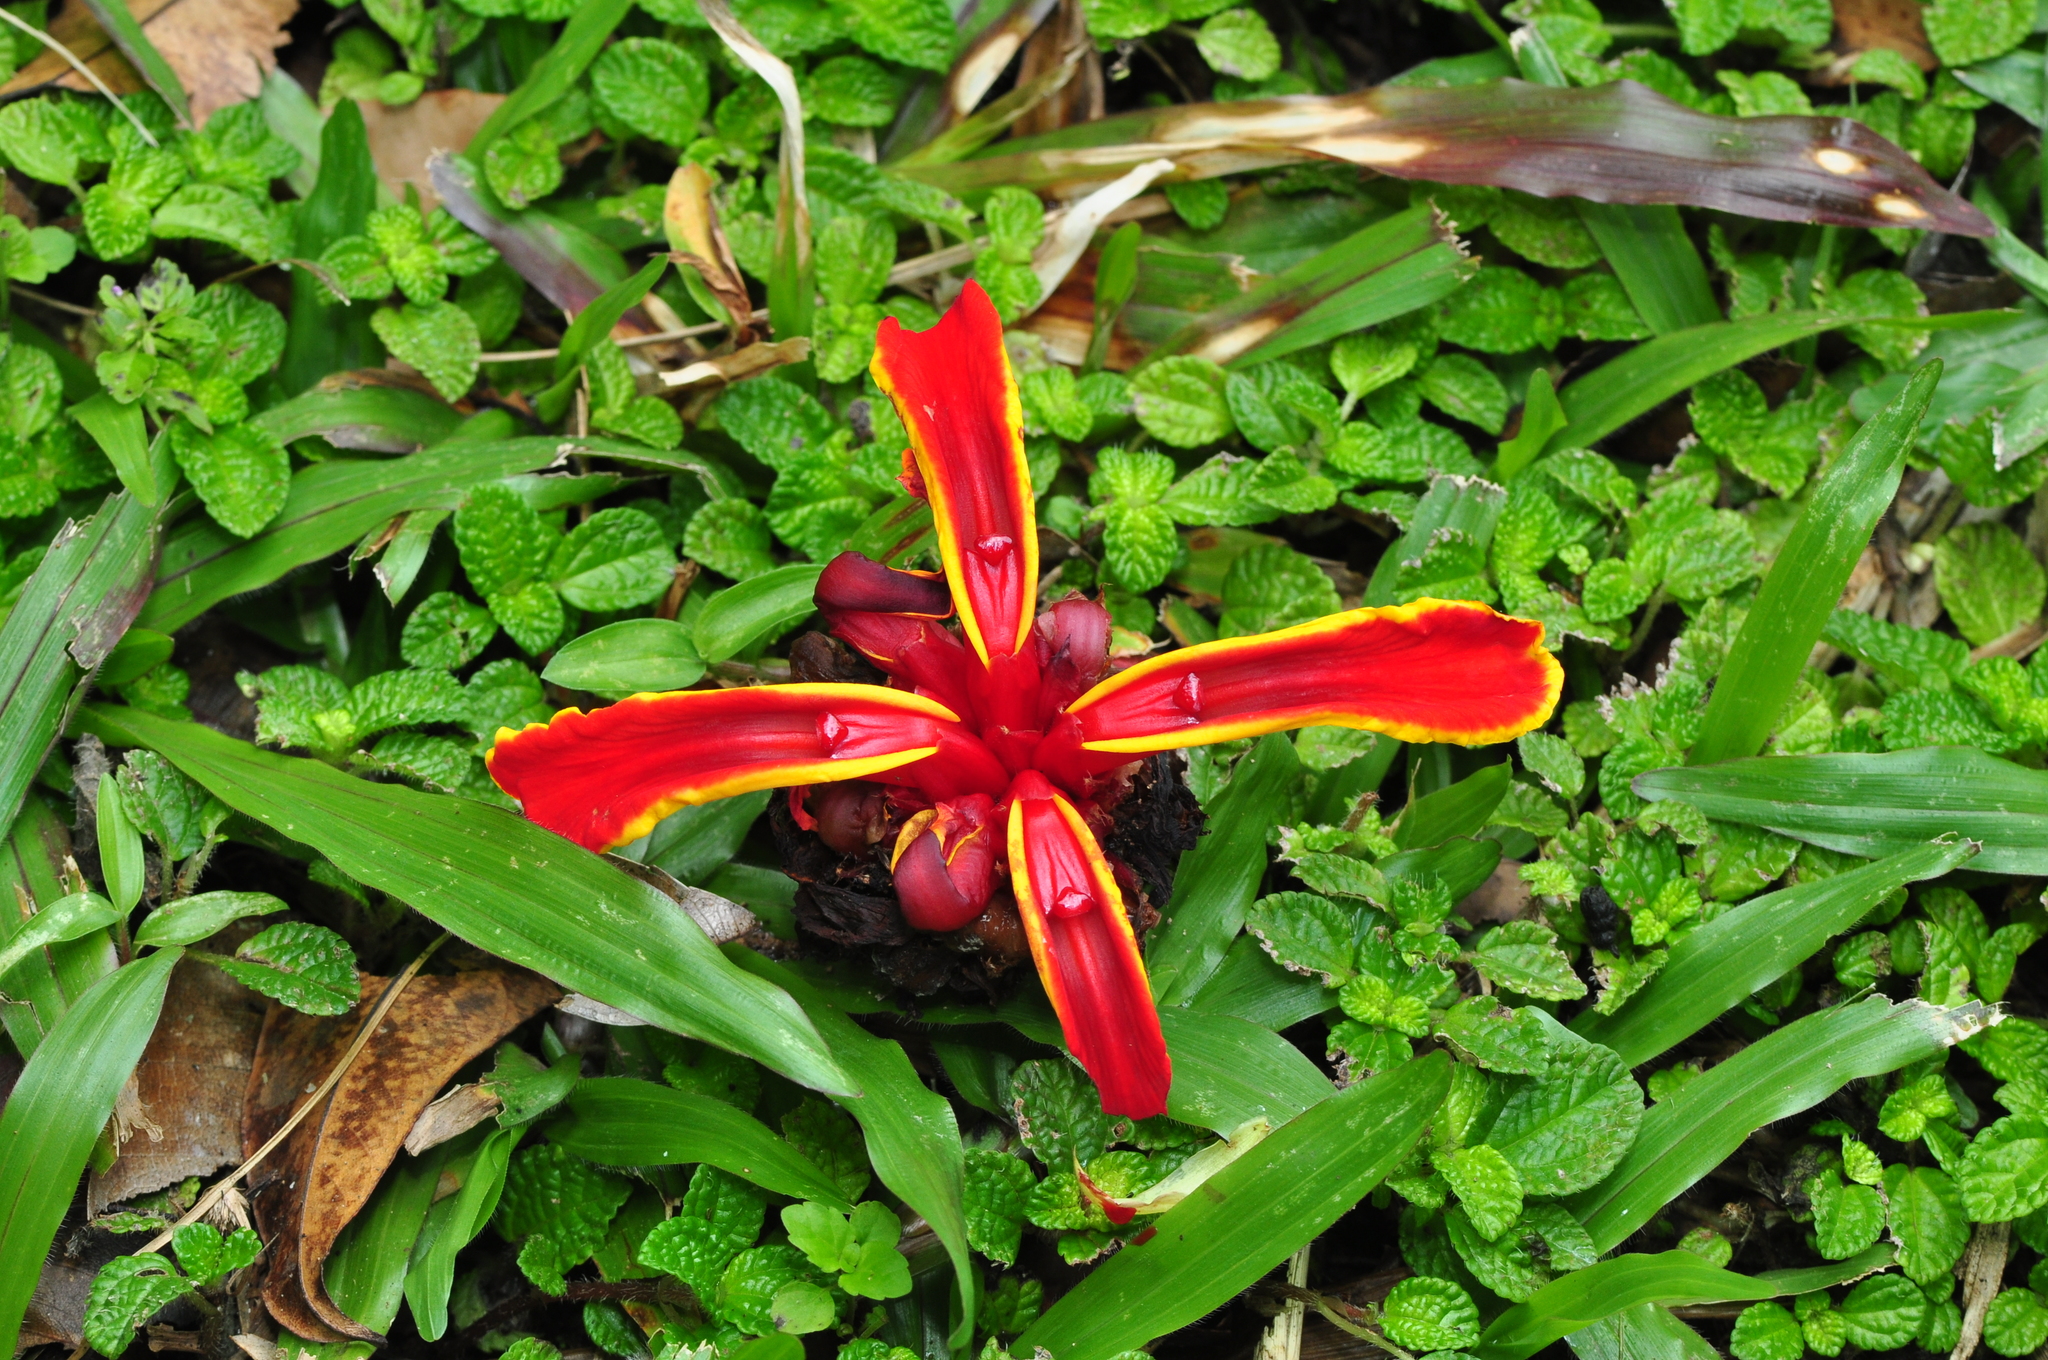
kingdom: Plantae
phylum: Tracheophyta
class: Liliopsida
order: Zingiberales
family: Zingiberaceae
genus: Etlingera
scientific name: Etlingera littoralis
